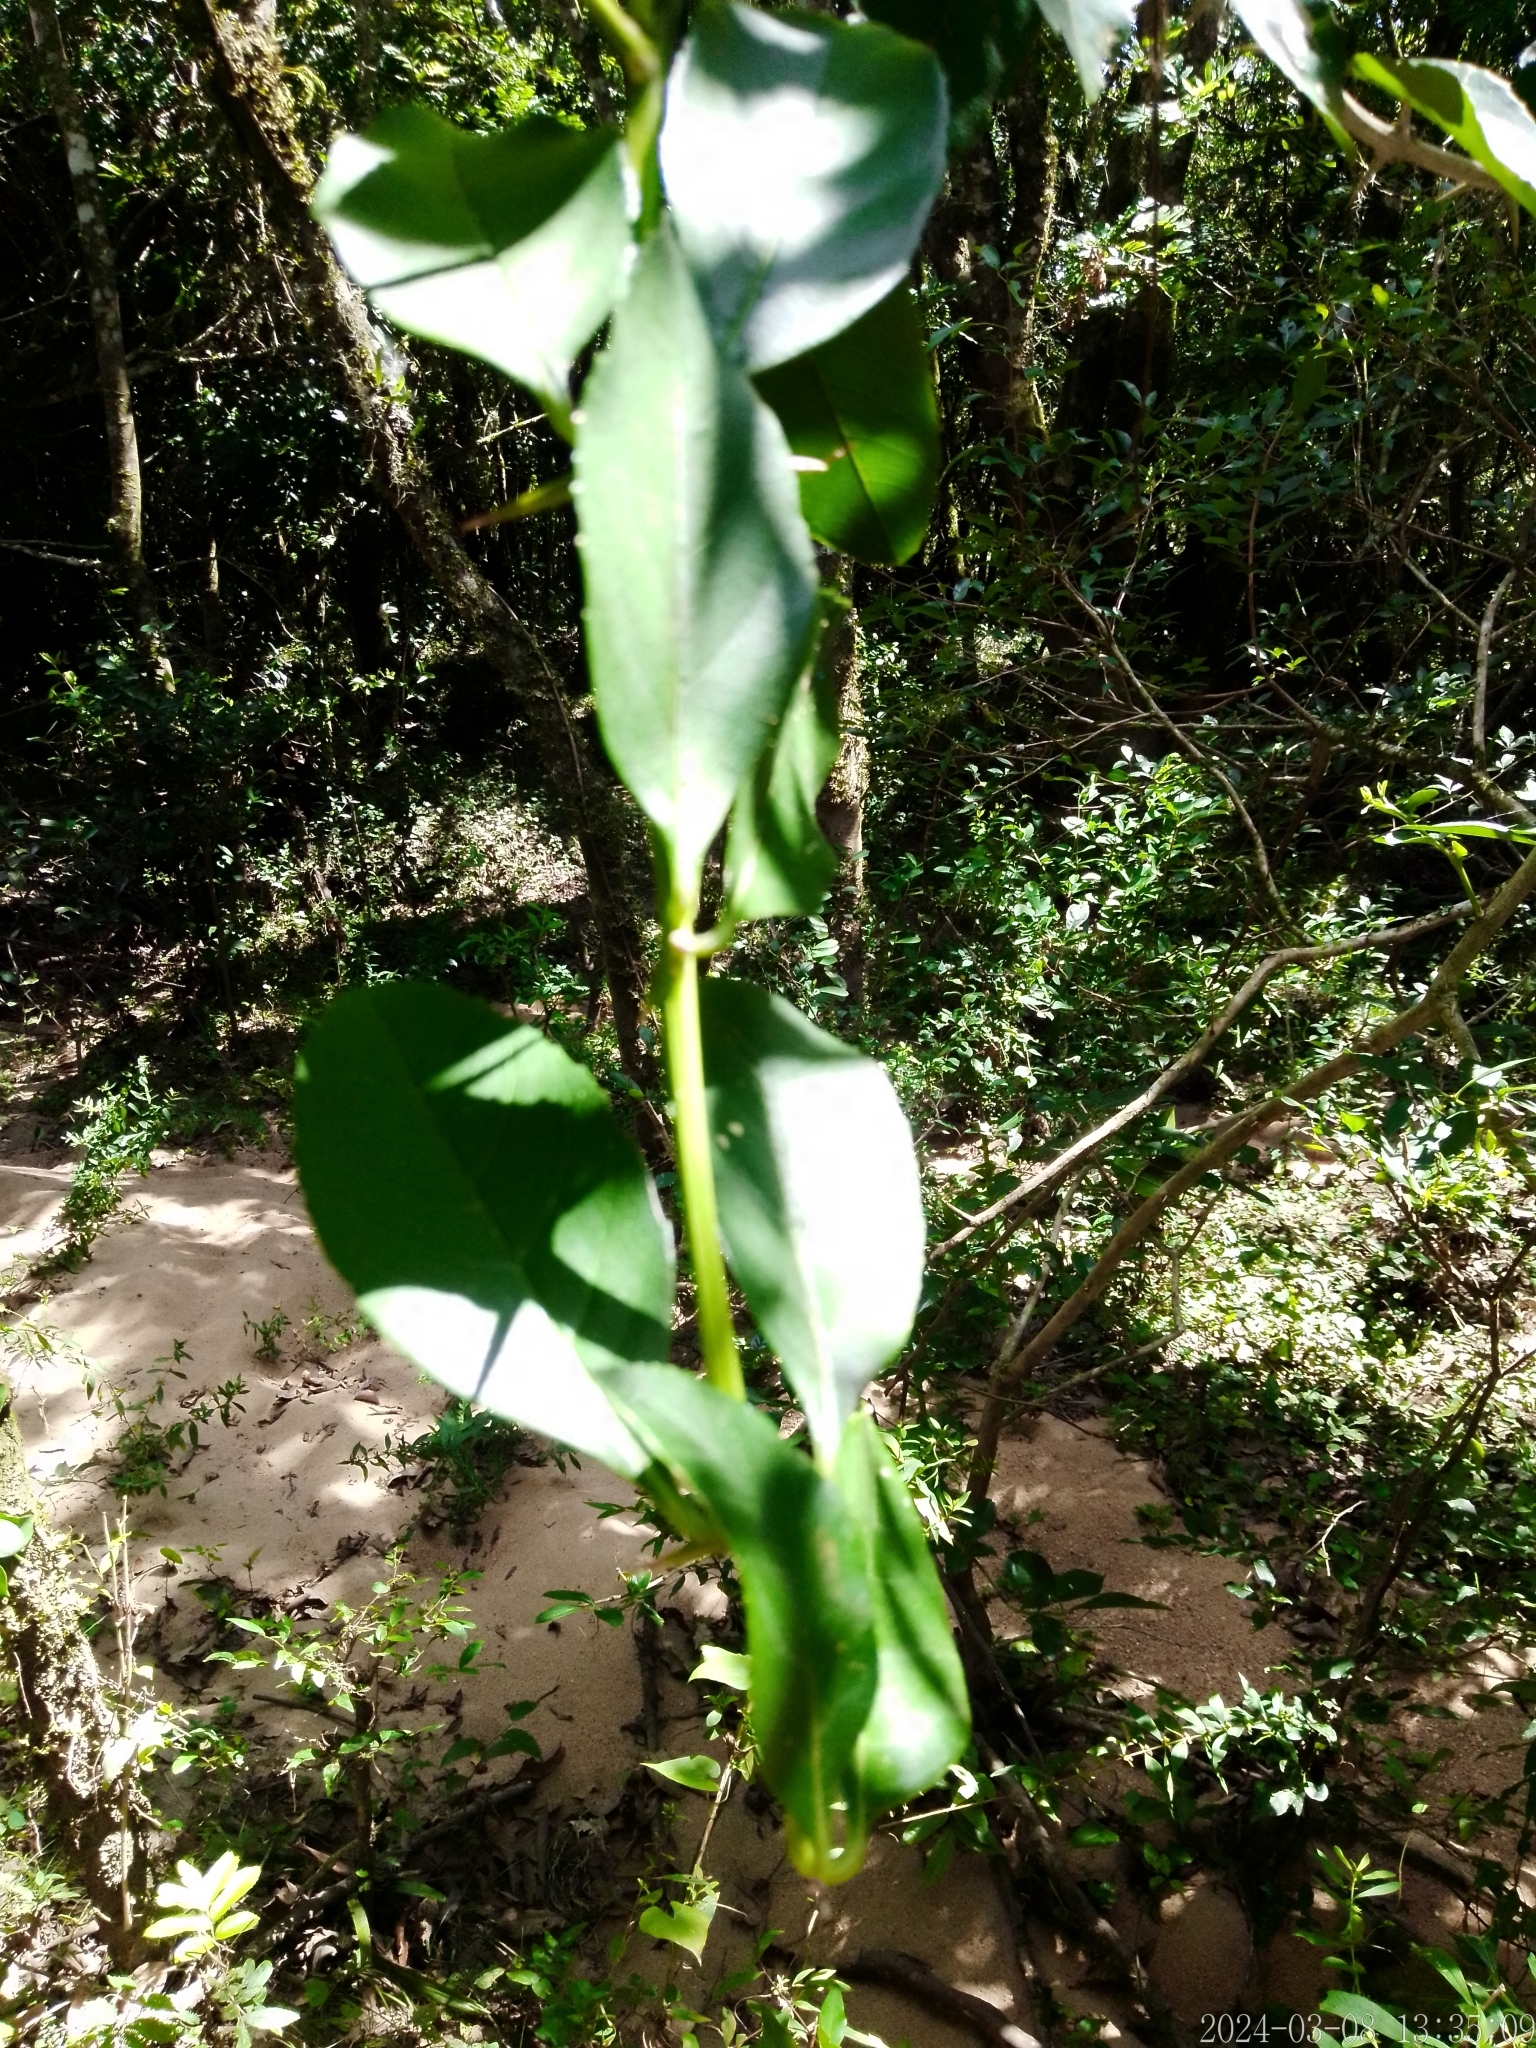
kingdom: Plantae
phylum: Tracheophyta
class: Magnoliopsida
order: Lamiales
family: Verbenaceae
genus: Citharexylum
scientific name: Citharexylum montevidense
